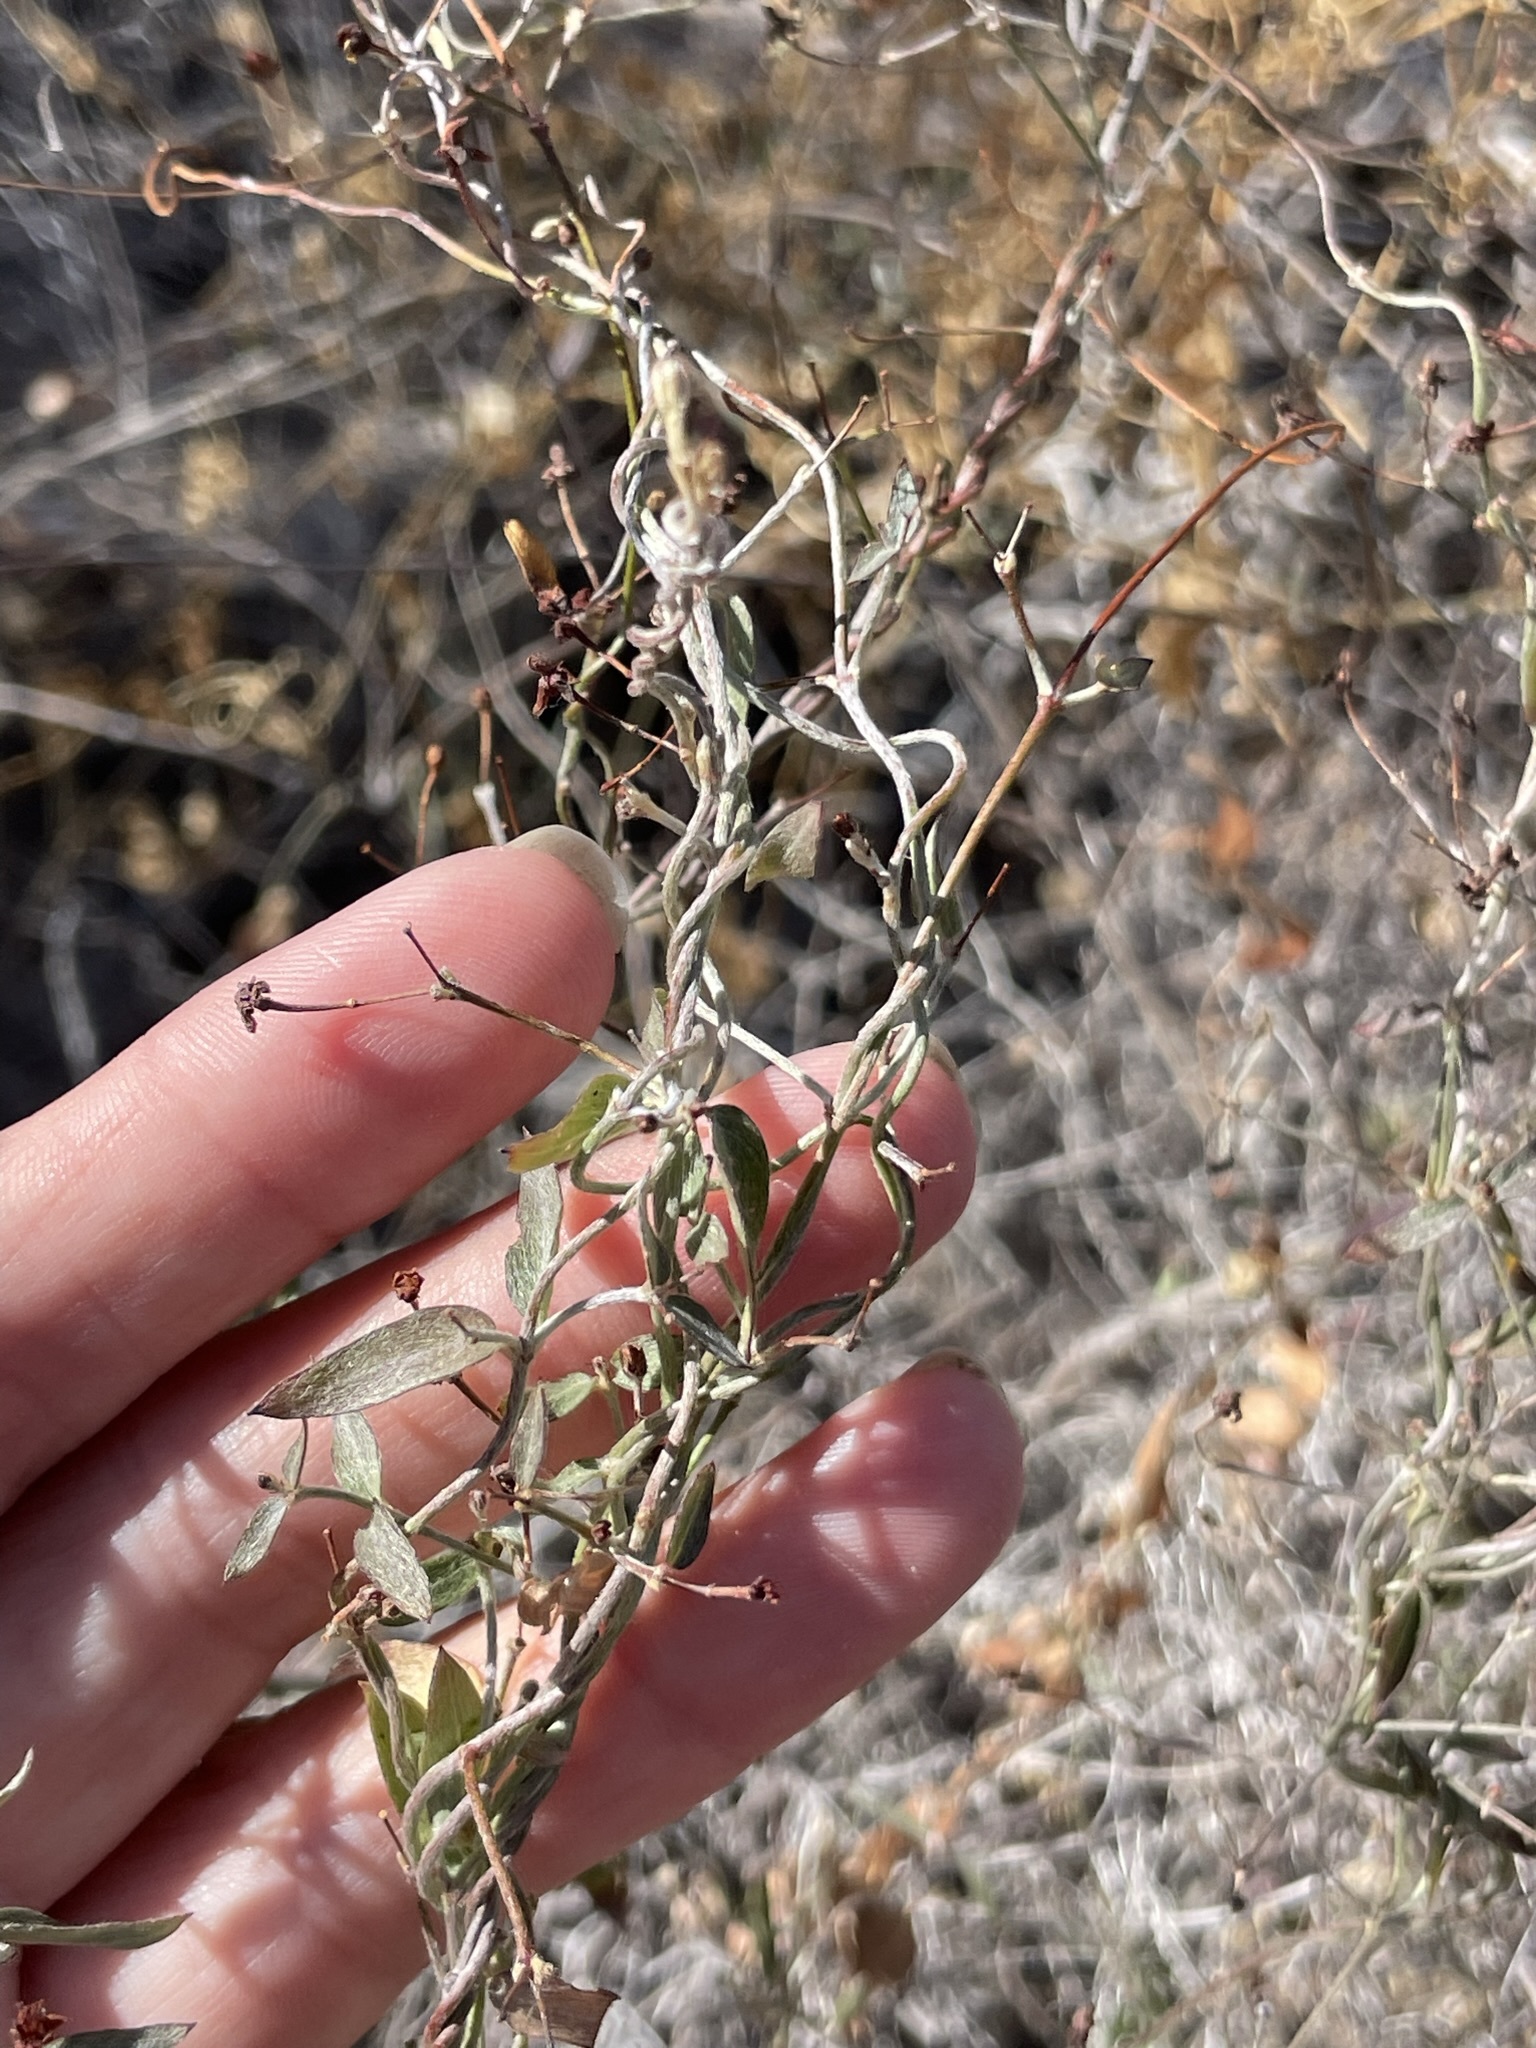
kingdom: Plantae
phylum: Tracheophyta
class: Magnoliopsida
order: Malpighiales
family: Malpighiaceae
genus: Cottsia
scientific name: Cottsia gracilis
